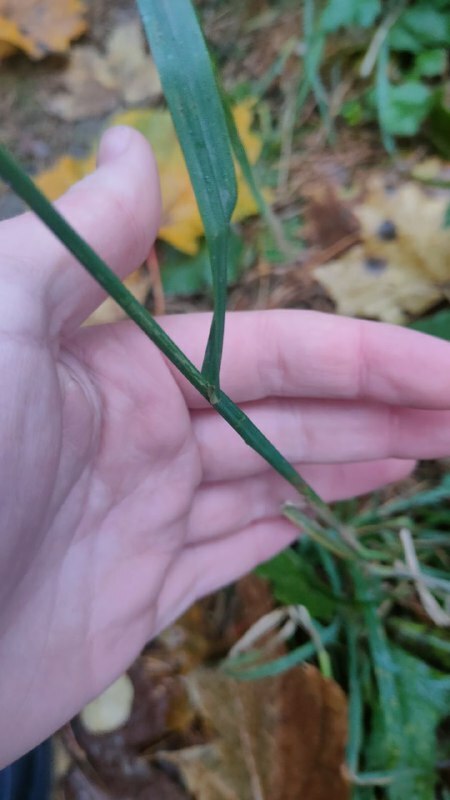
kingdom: Plantae
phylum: Tracheophyta
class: Liliopsida
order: Poales
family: Poaceae
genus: Dactylis
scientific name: Dactylis glomerata
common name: Orchardgrass
